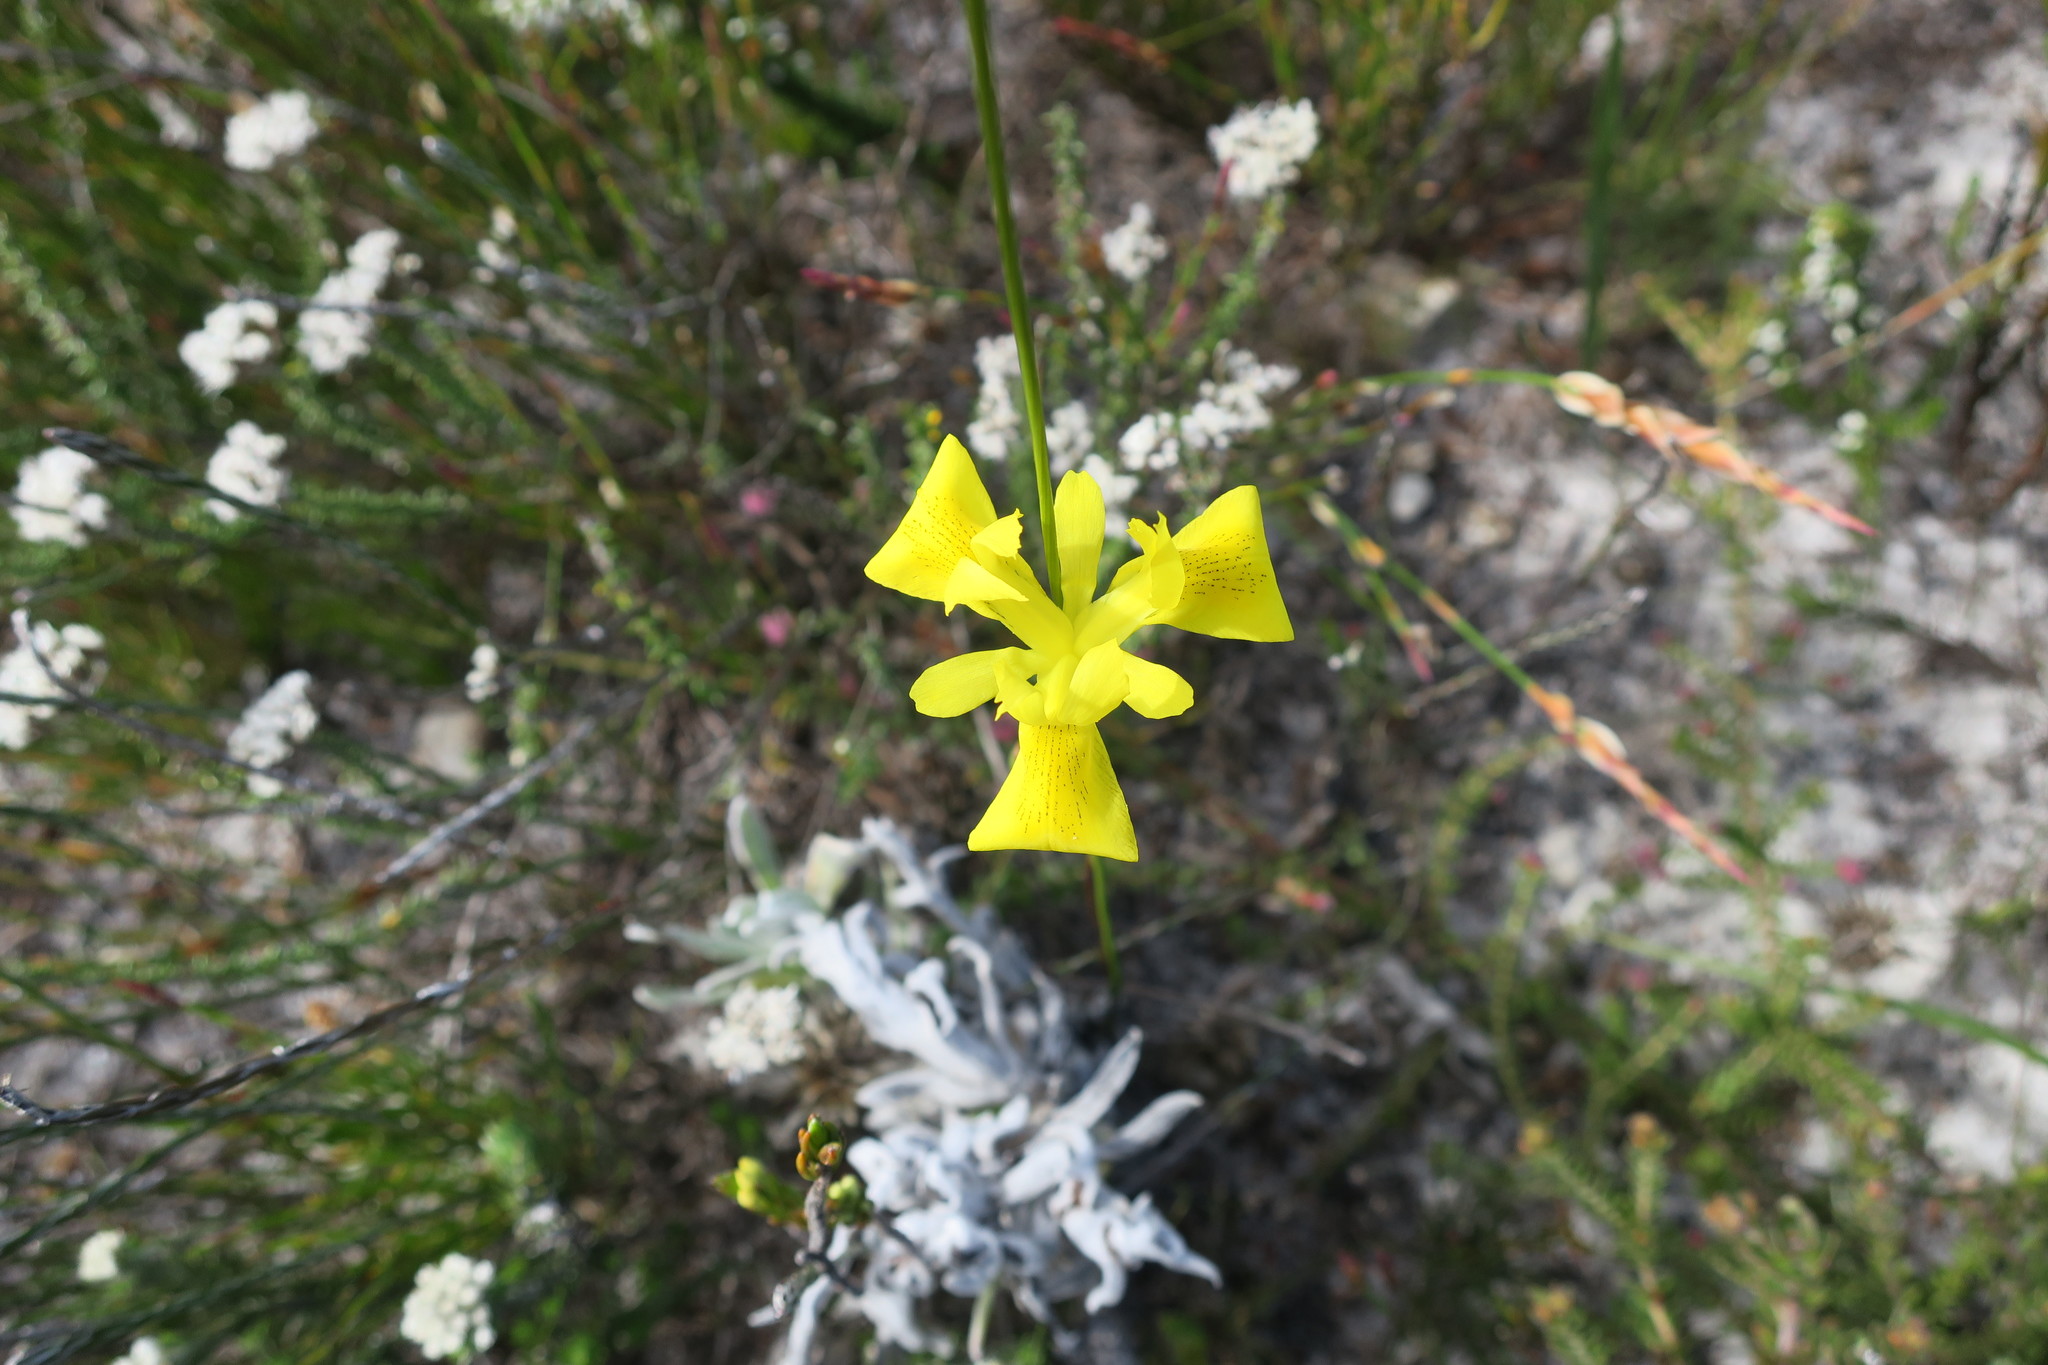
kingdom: Plantae
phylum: Tracheophyta
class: Liliopsida
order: Asparagales
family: Iridaceae
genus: Moraea
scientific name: Moraea neglecta
